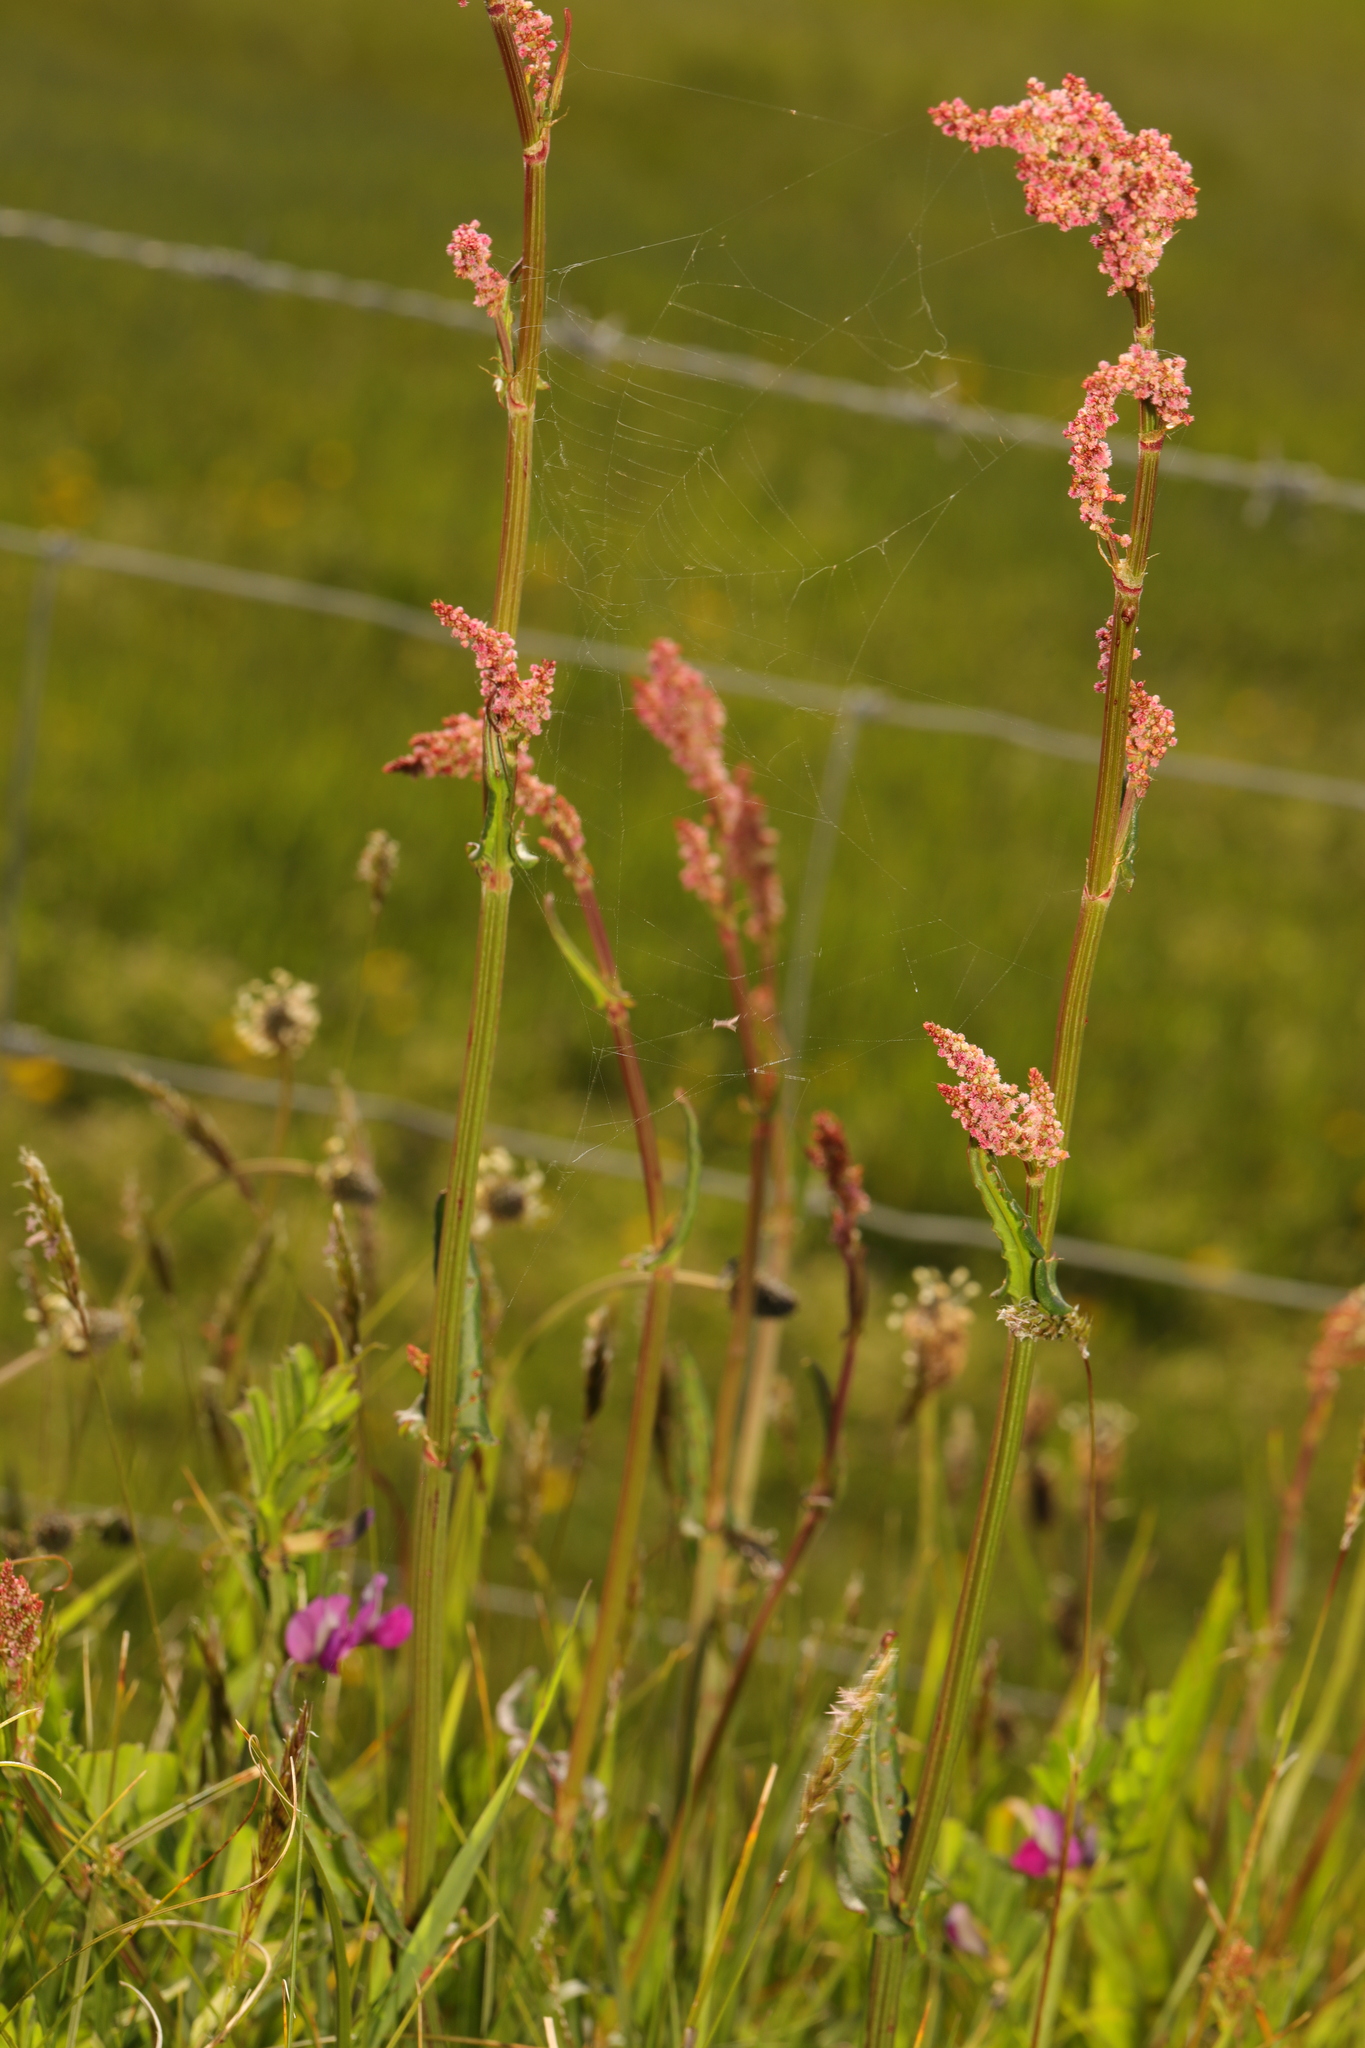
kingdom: Plantae
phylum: Tracheophyta
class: Magnoliopsida
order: Caryophyllales
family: Polygonaceae
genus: Rumex
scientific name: Rumex acetosa
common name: Garden sorrel
